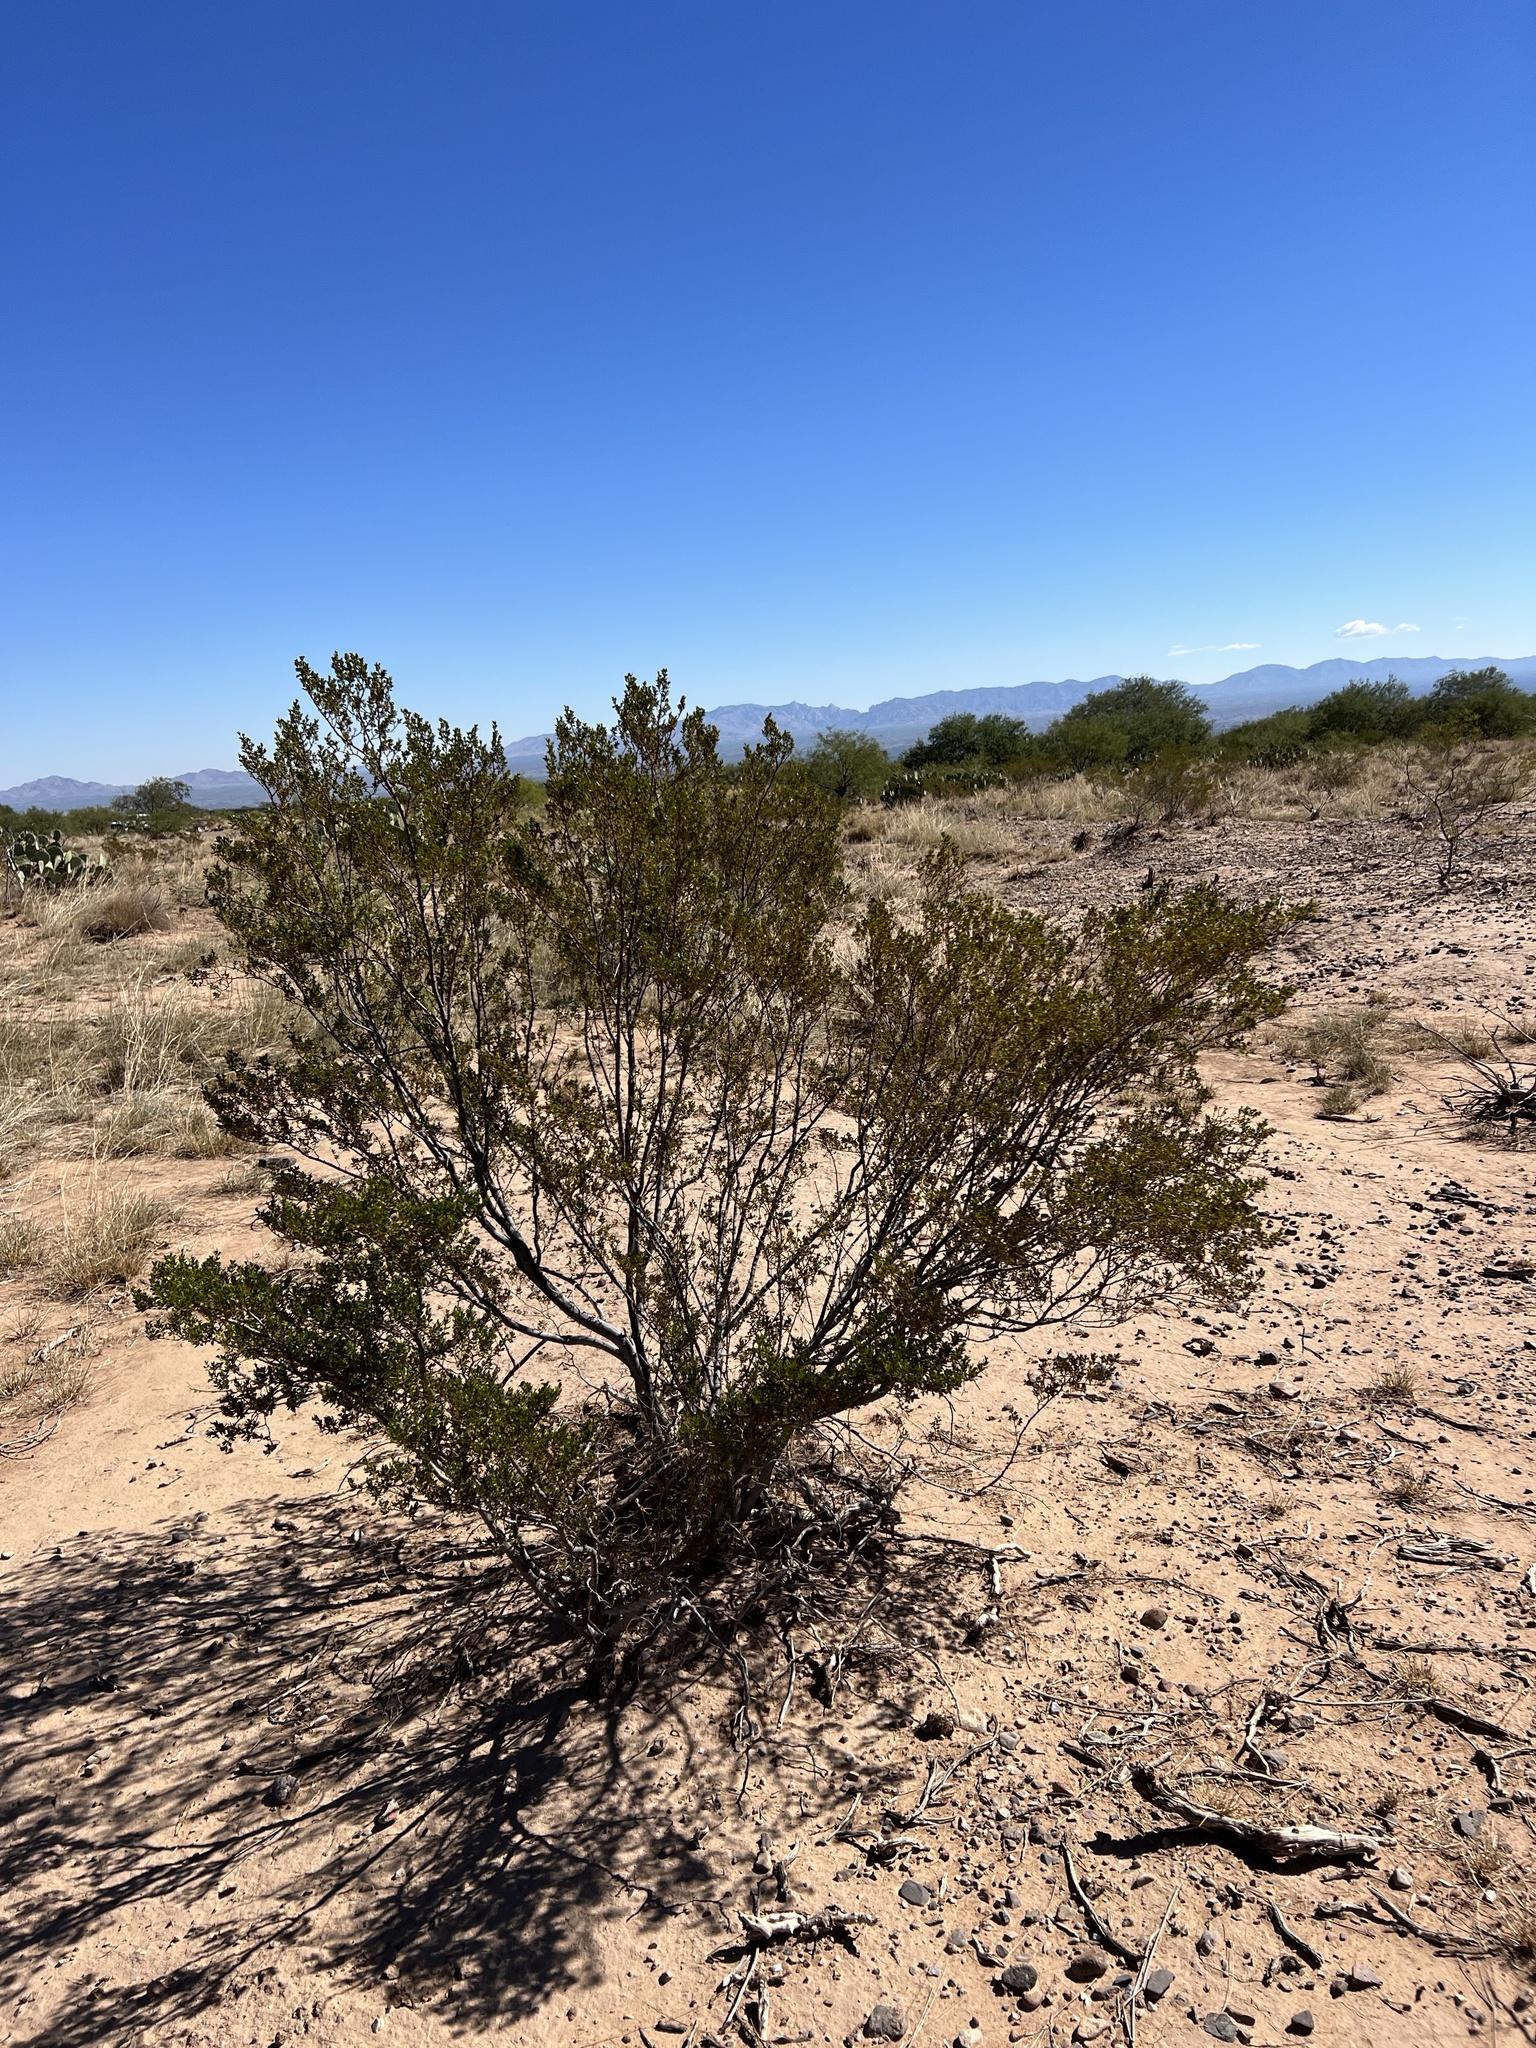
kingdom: Plantae
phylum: Tracheophyta
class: Magnoliopsida
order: Zygophyllales
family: Zygophyllaceae
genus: Larrea
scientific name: Larrea tridentata
